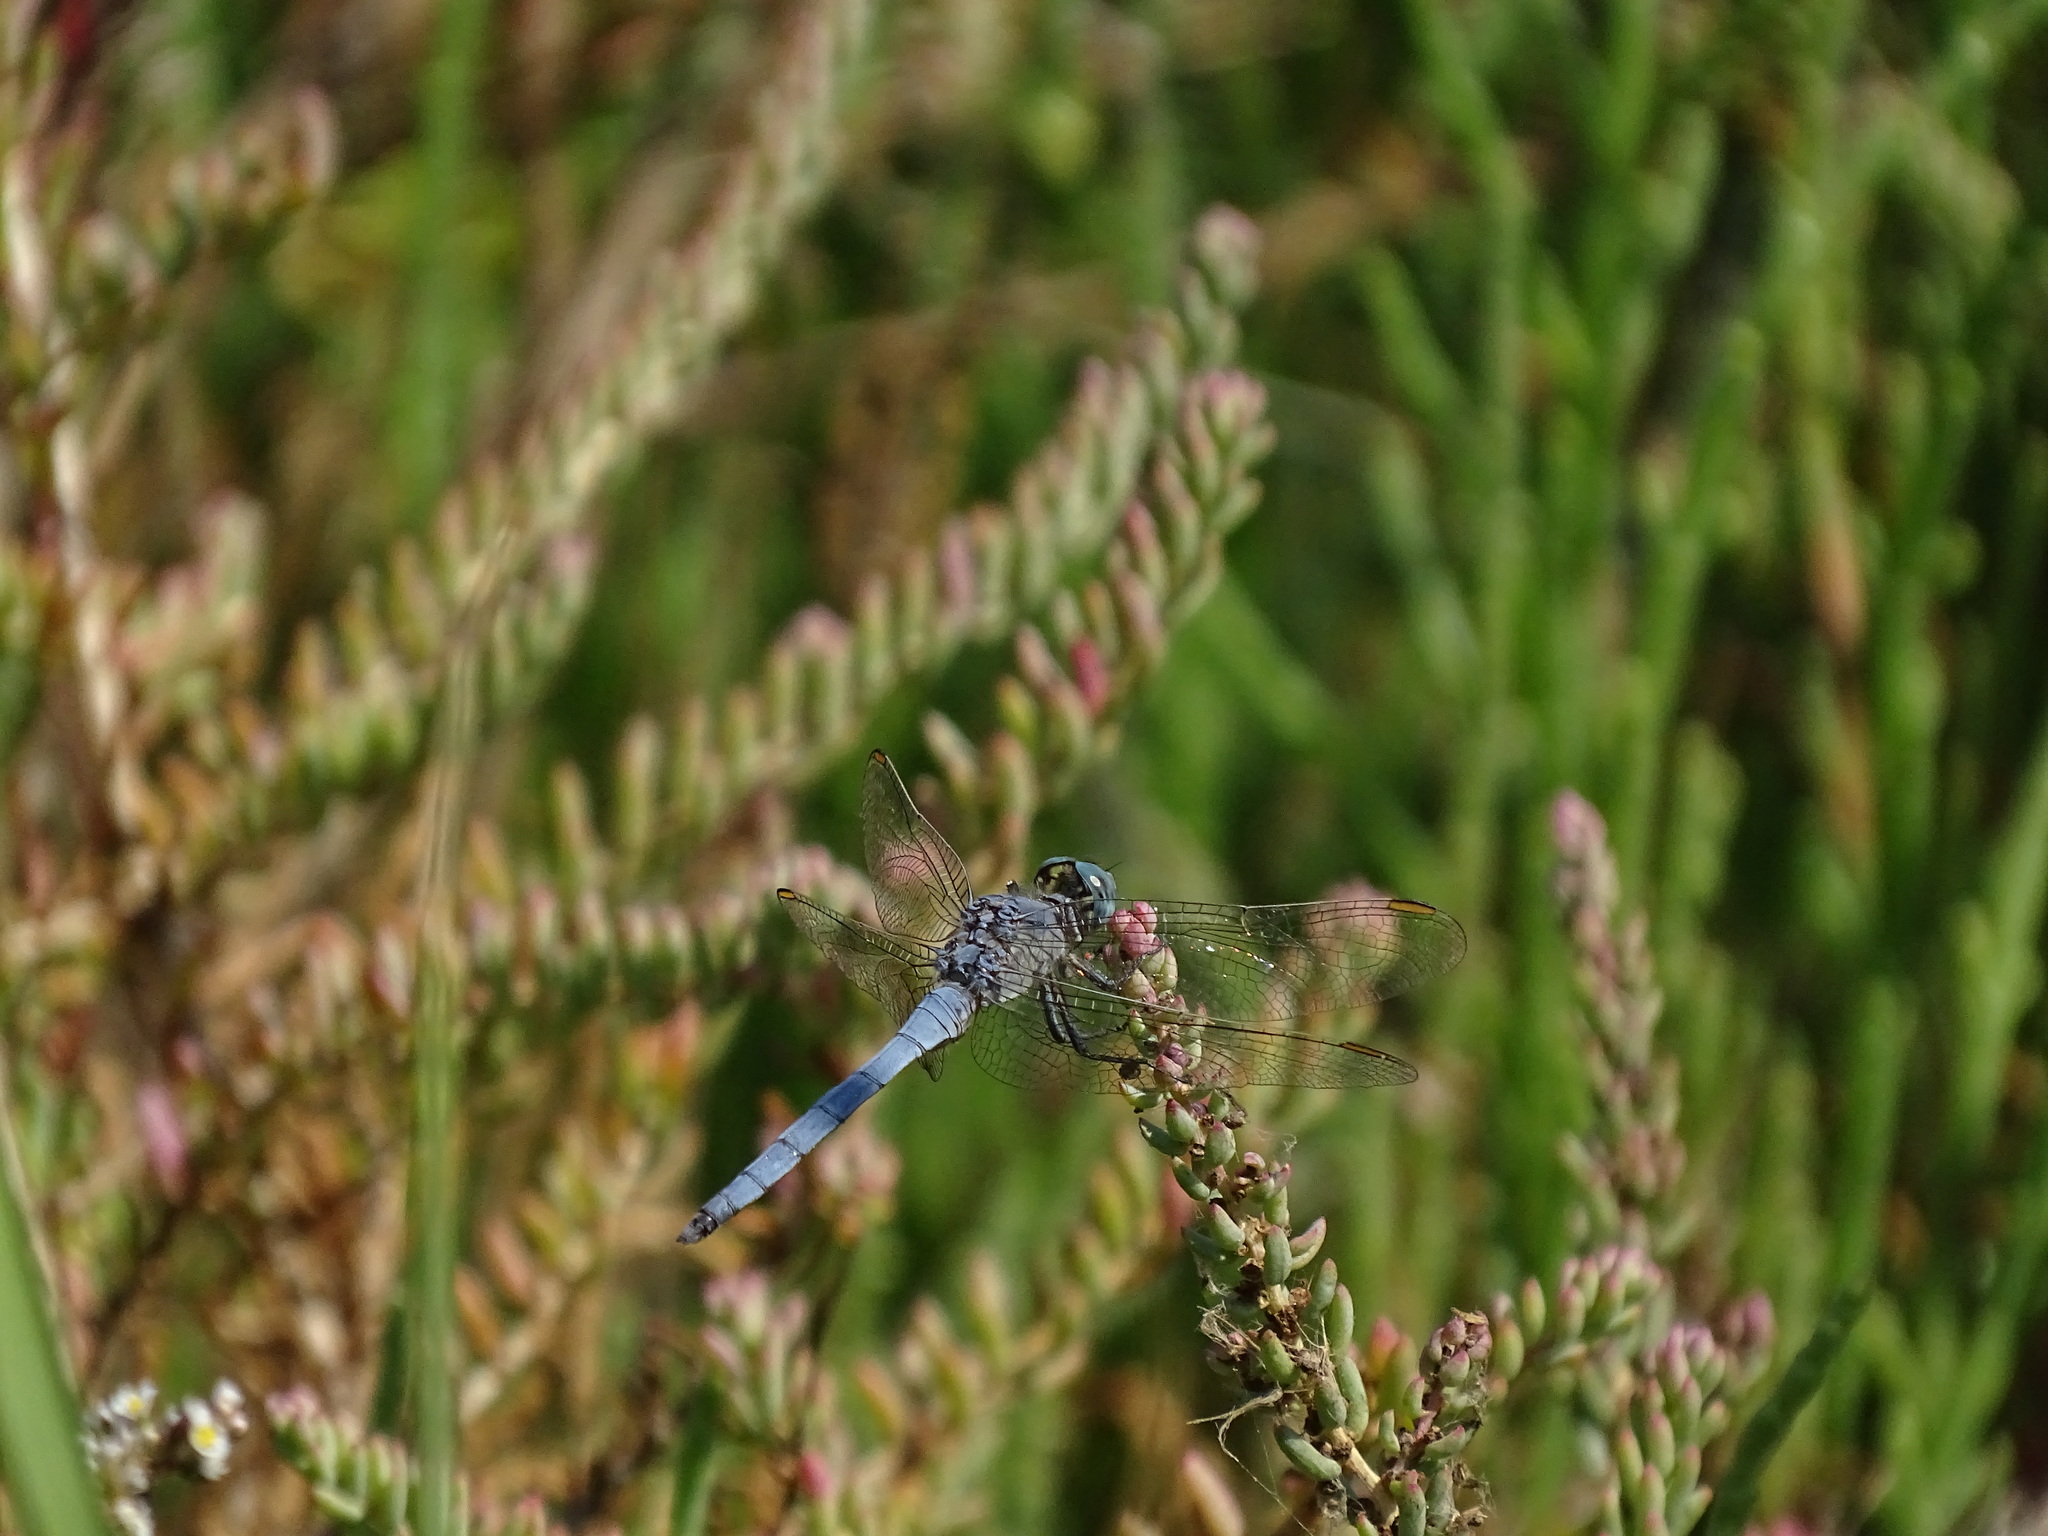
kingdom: Animalia
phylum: Arthropoda
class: Insecta
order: Odonata
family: Libellulidae
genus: Orthetrum
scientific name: Orthetrum chrysostigma
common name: Epaulet skimmer
